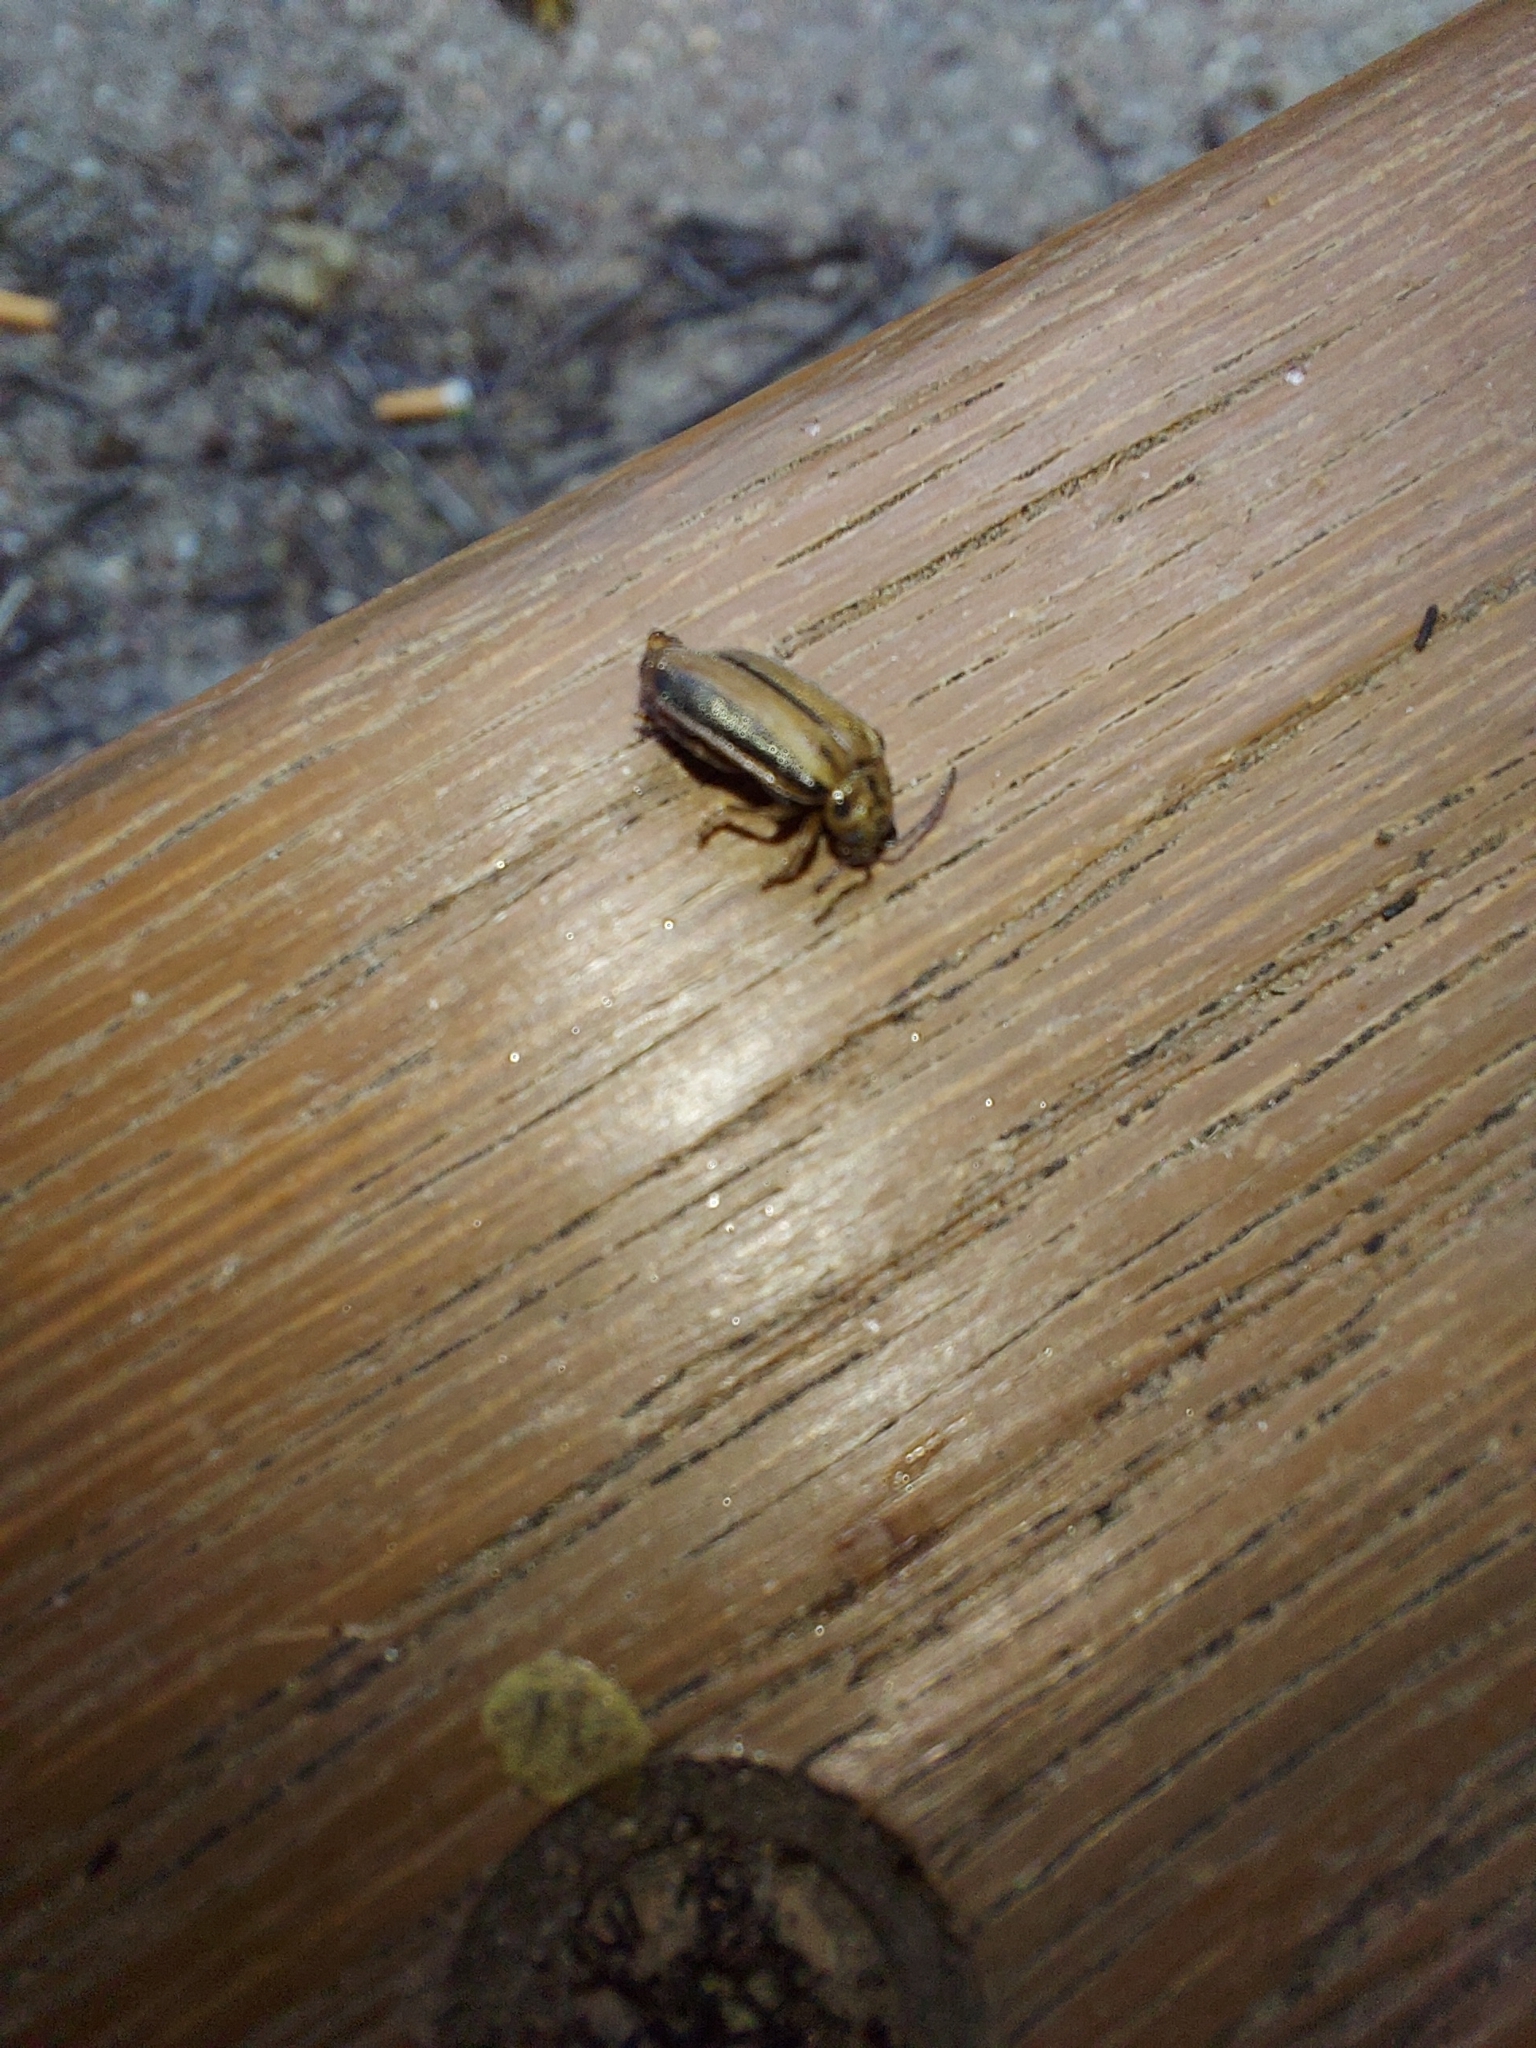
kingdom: Animalia
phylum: Arthropoda
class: Insecta
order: Coleoptera
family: Chrysomelidae
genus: Xanthogaleruca
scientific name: Xanthogaleruca luteola
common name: Elm leaf beetle
